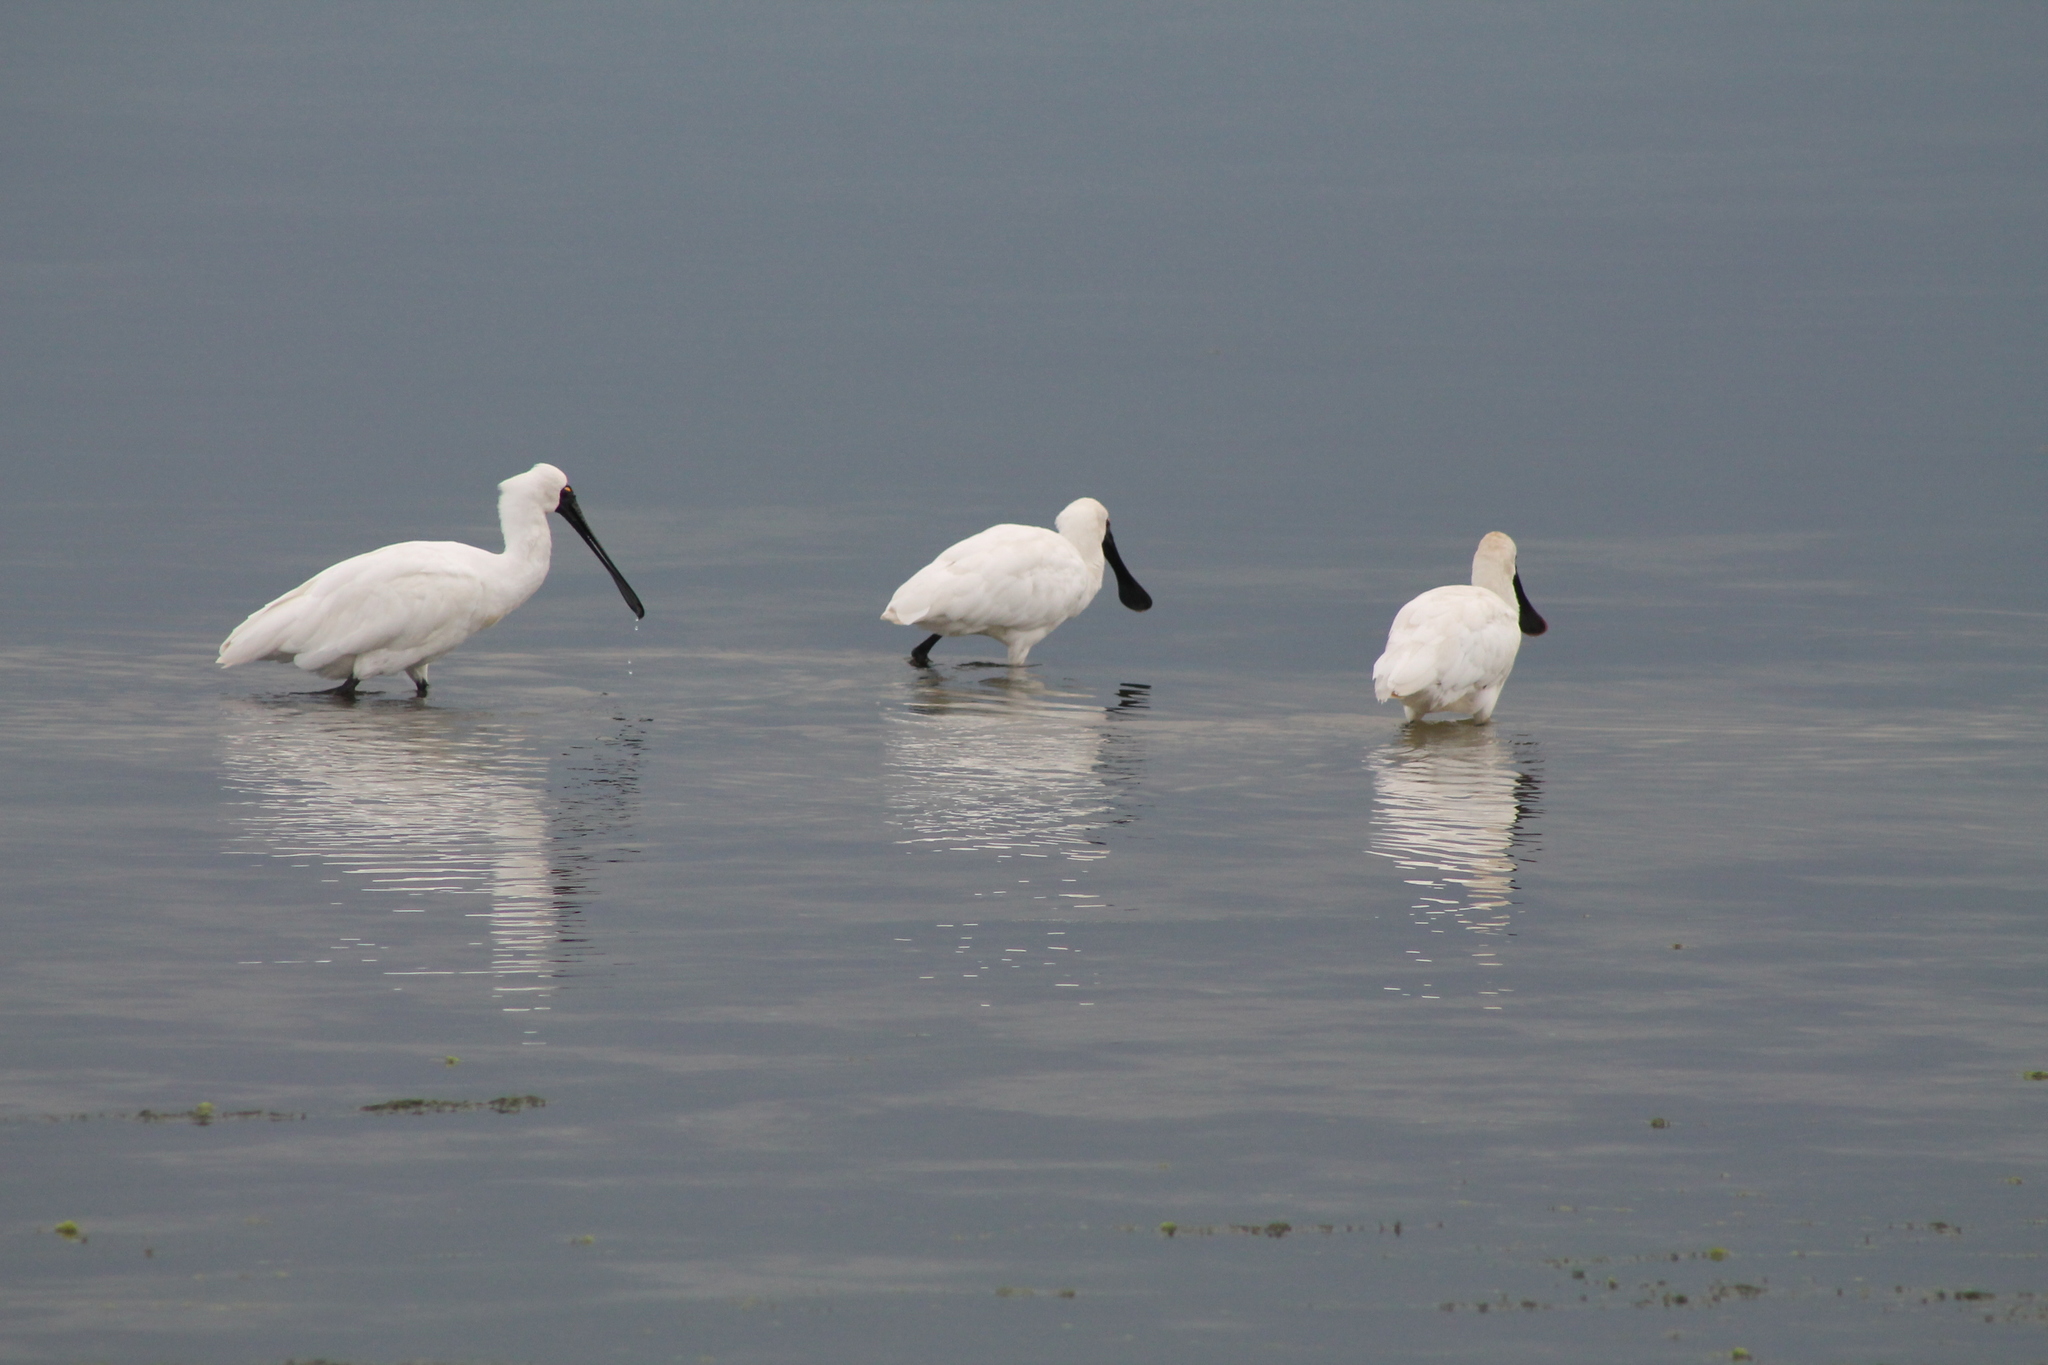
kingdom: Animalia
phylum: Chordata
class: Aves
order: Pelecaniformes
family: Threskiornithidae
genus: Platalea
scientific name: Platalea regia
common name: Royal spoonbill
